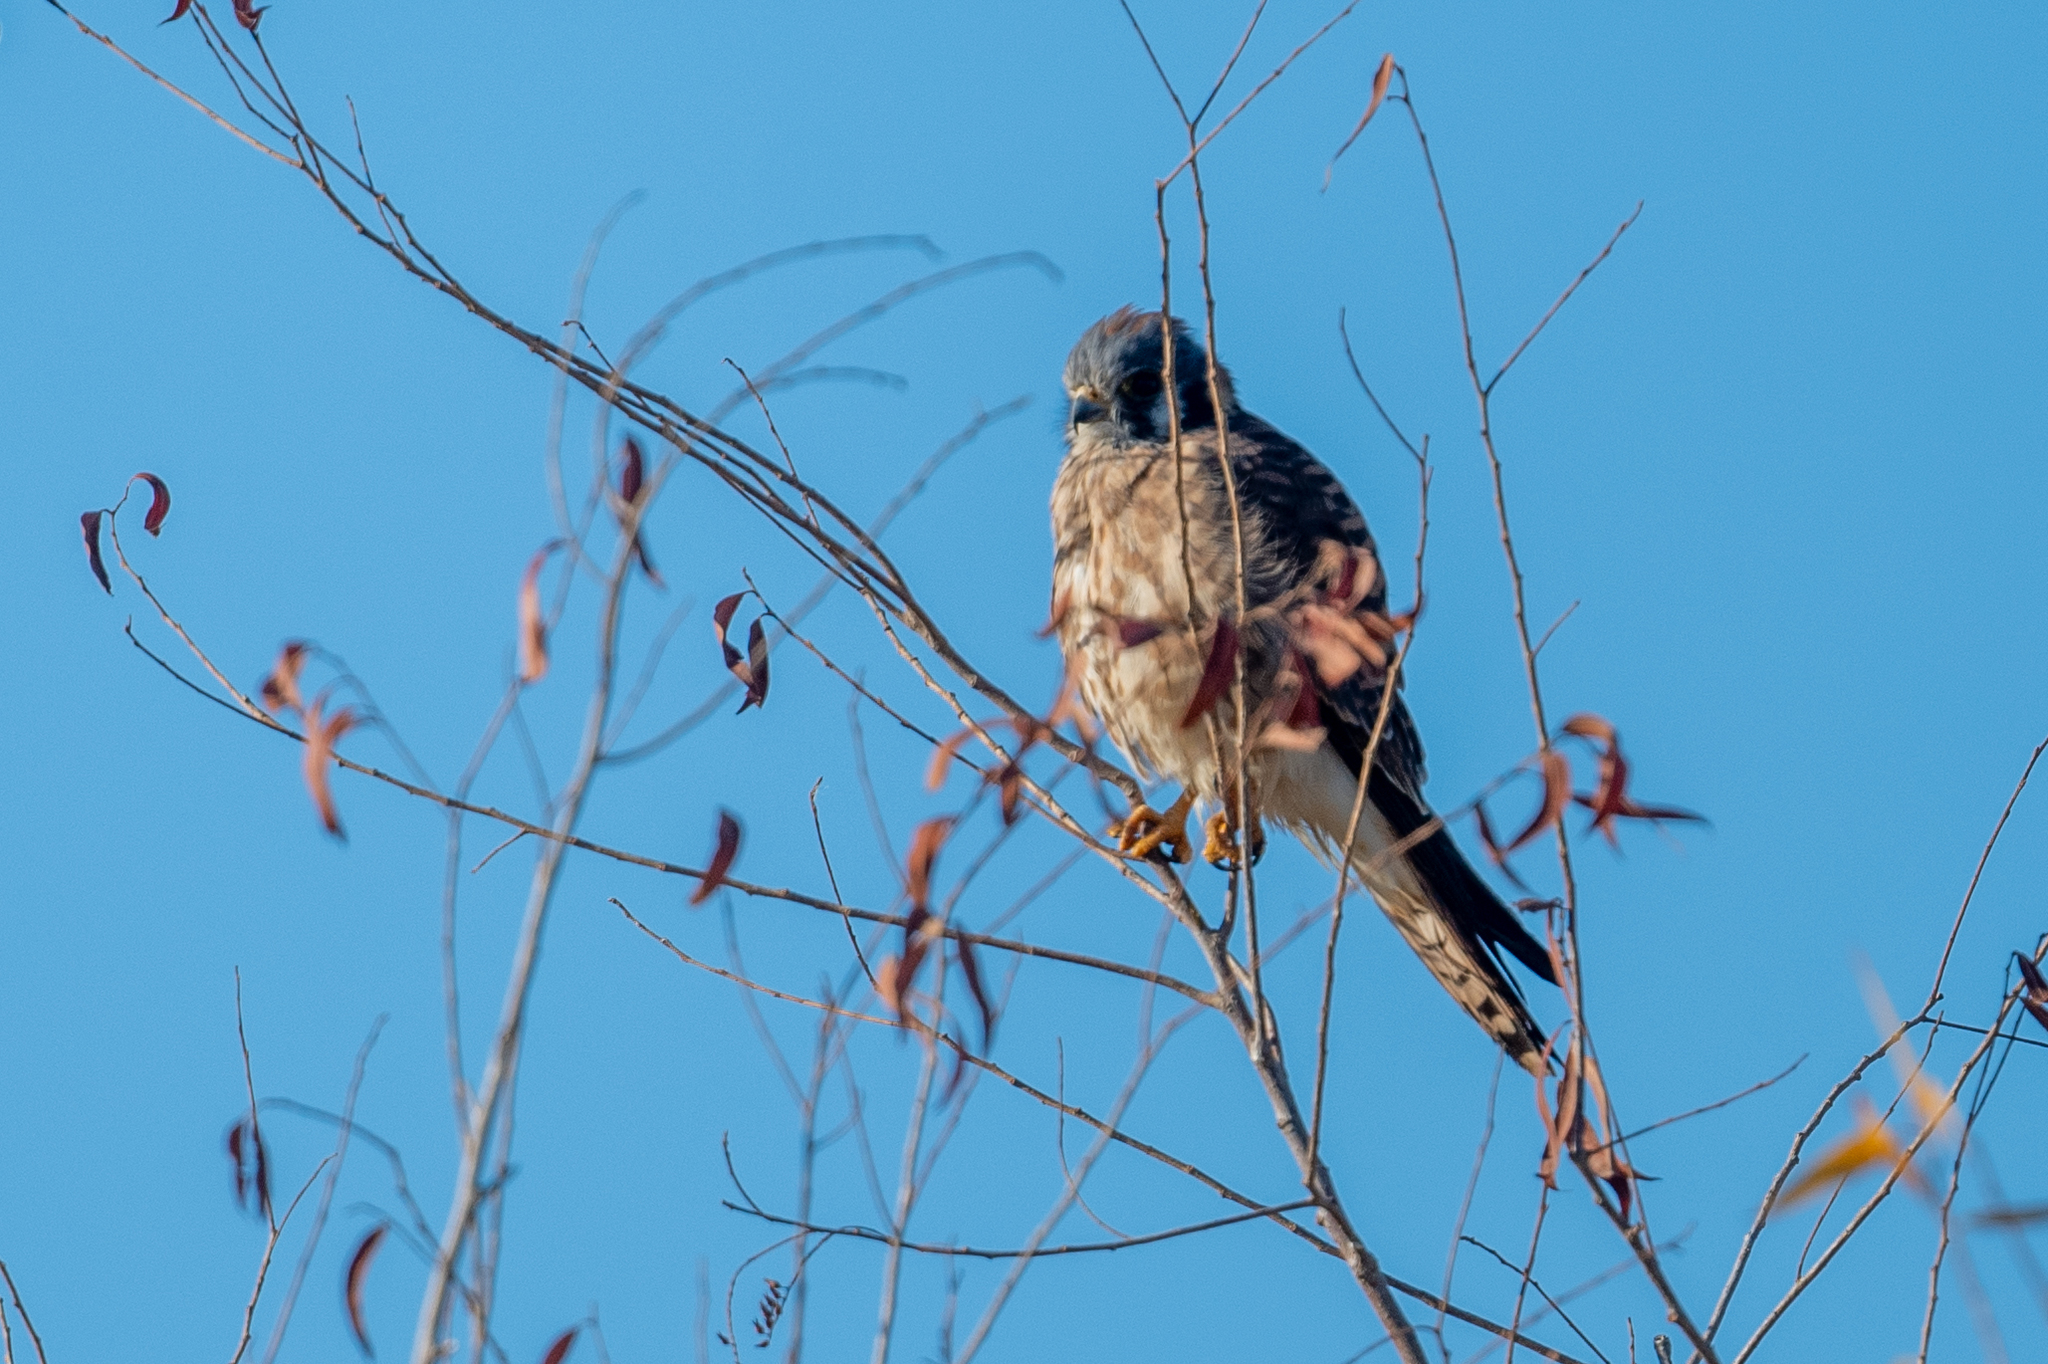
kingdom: Animalia
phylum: Chordata
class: Aves
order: Falconiformes
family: Falconidae
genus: Falco
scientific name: Falco sparverius
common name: American kestrel
